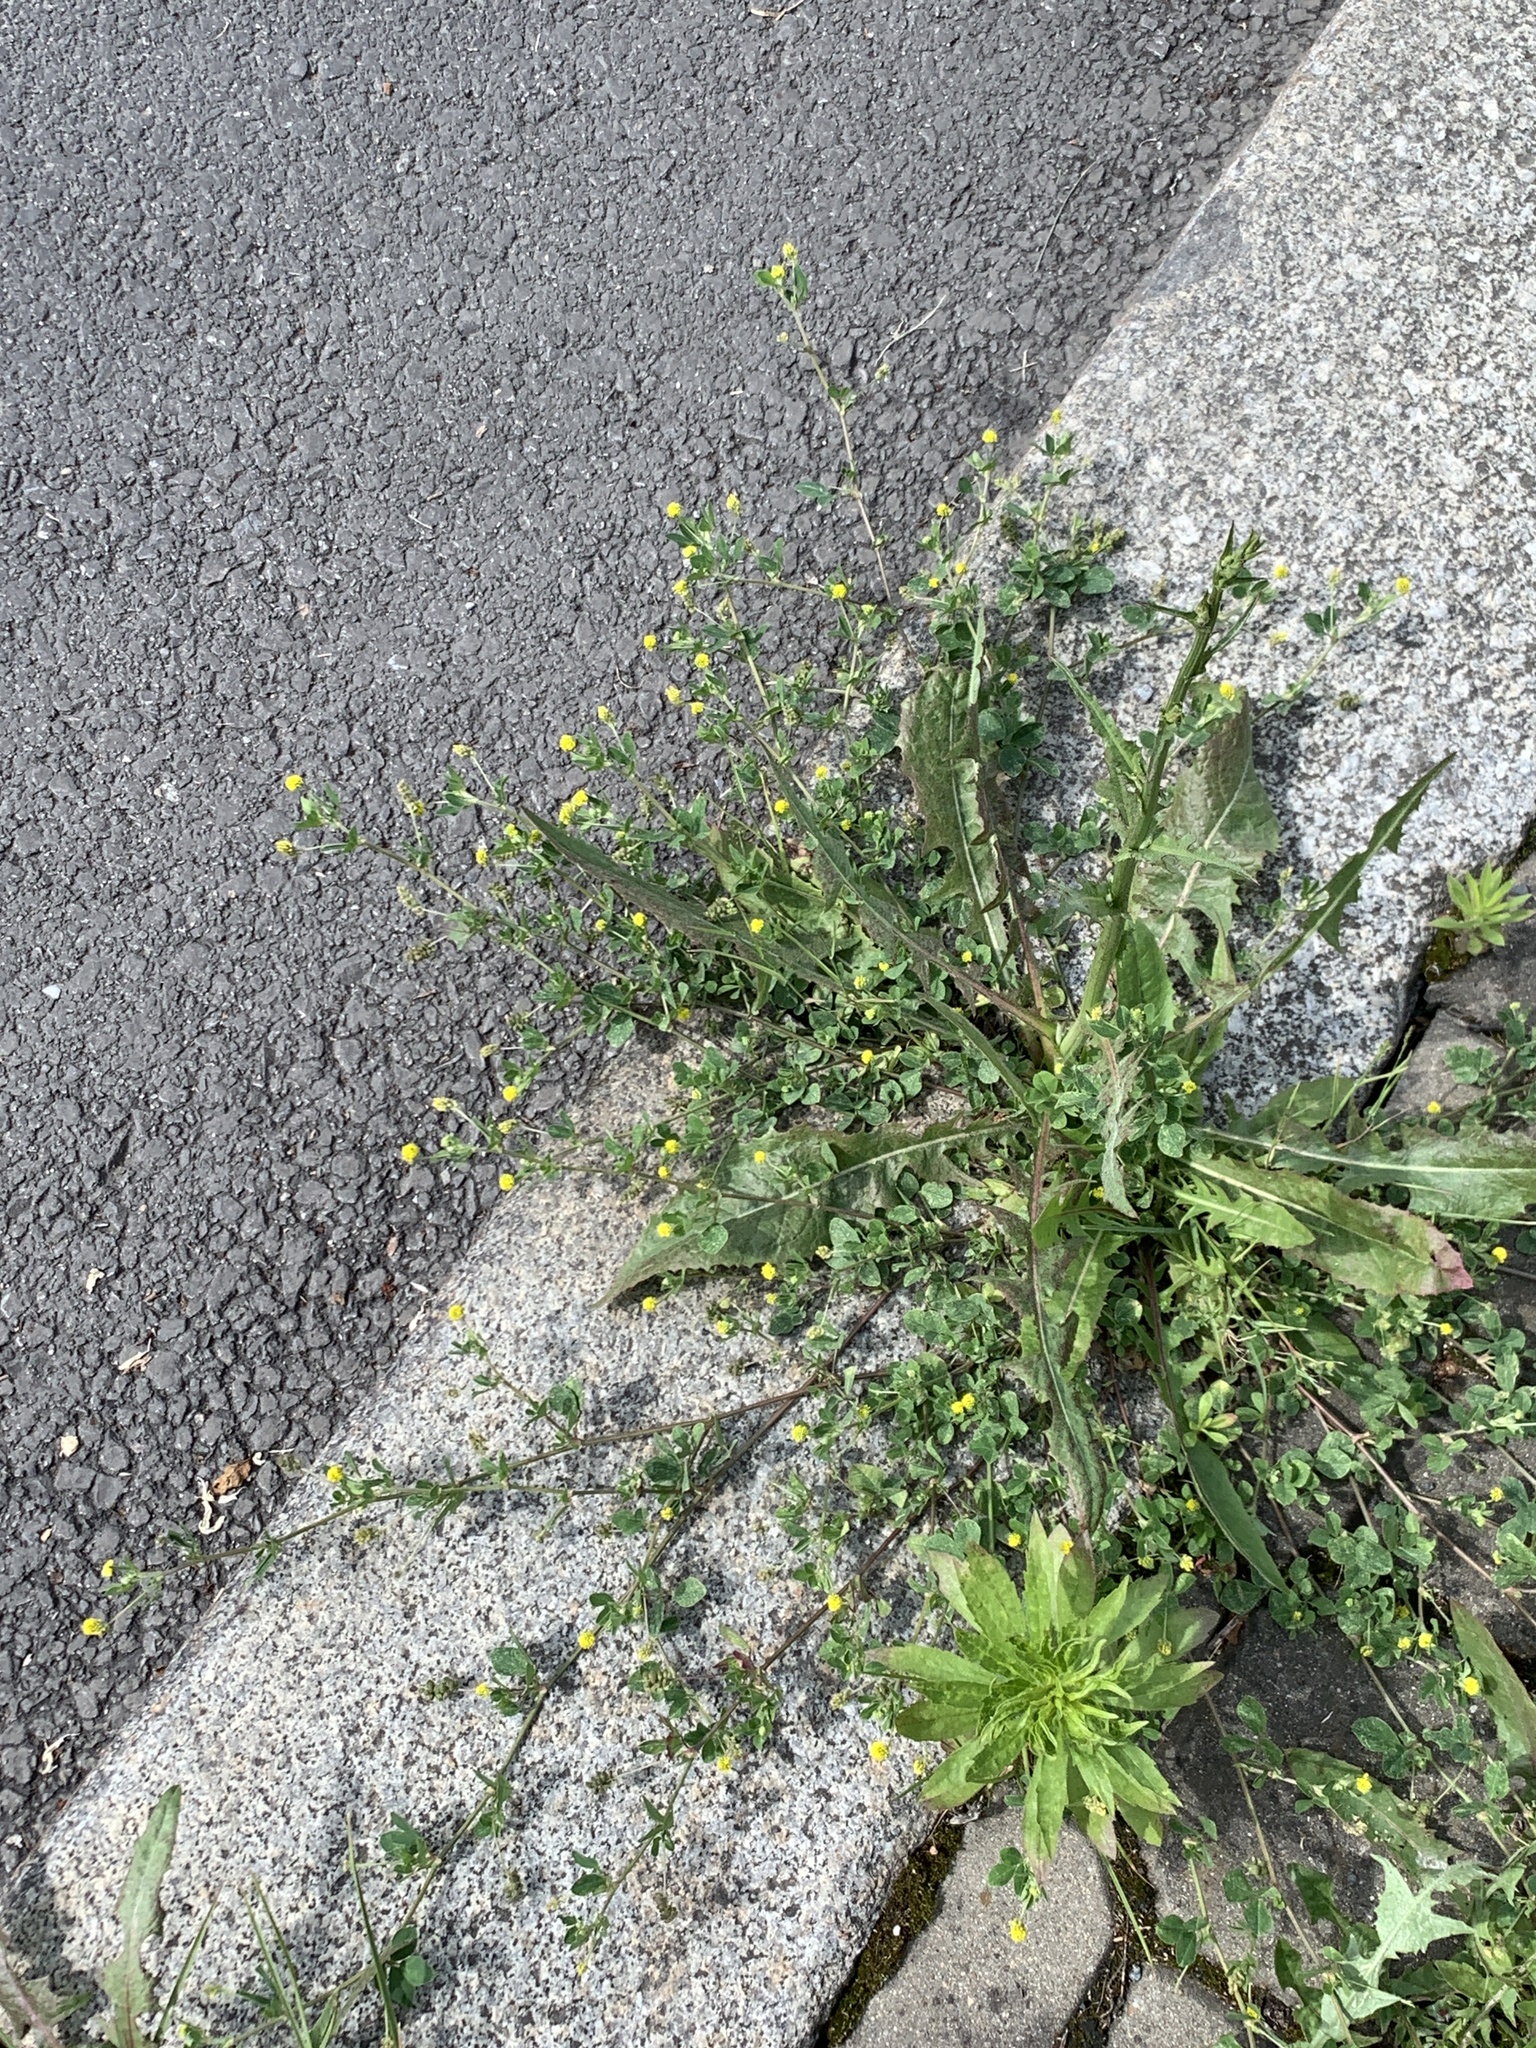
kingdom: Plantae
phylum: Tracheophyta
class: Magnoliopsida
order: Fabales
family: Fabaceae
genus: Medicago
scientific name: Medicago lupulina
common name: Black medick
